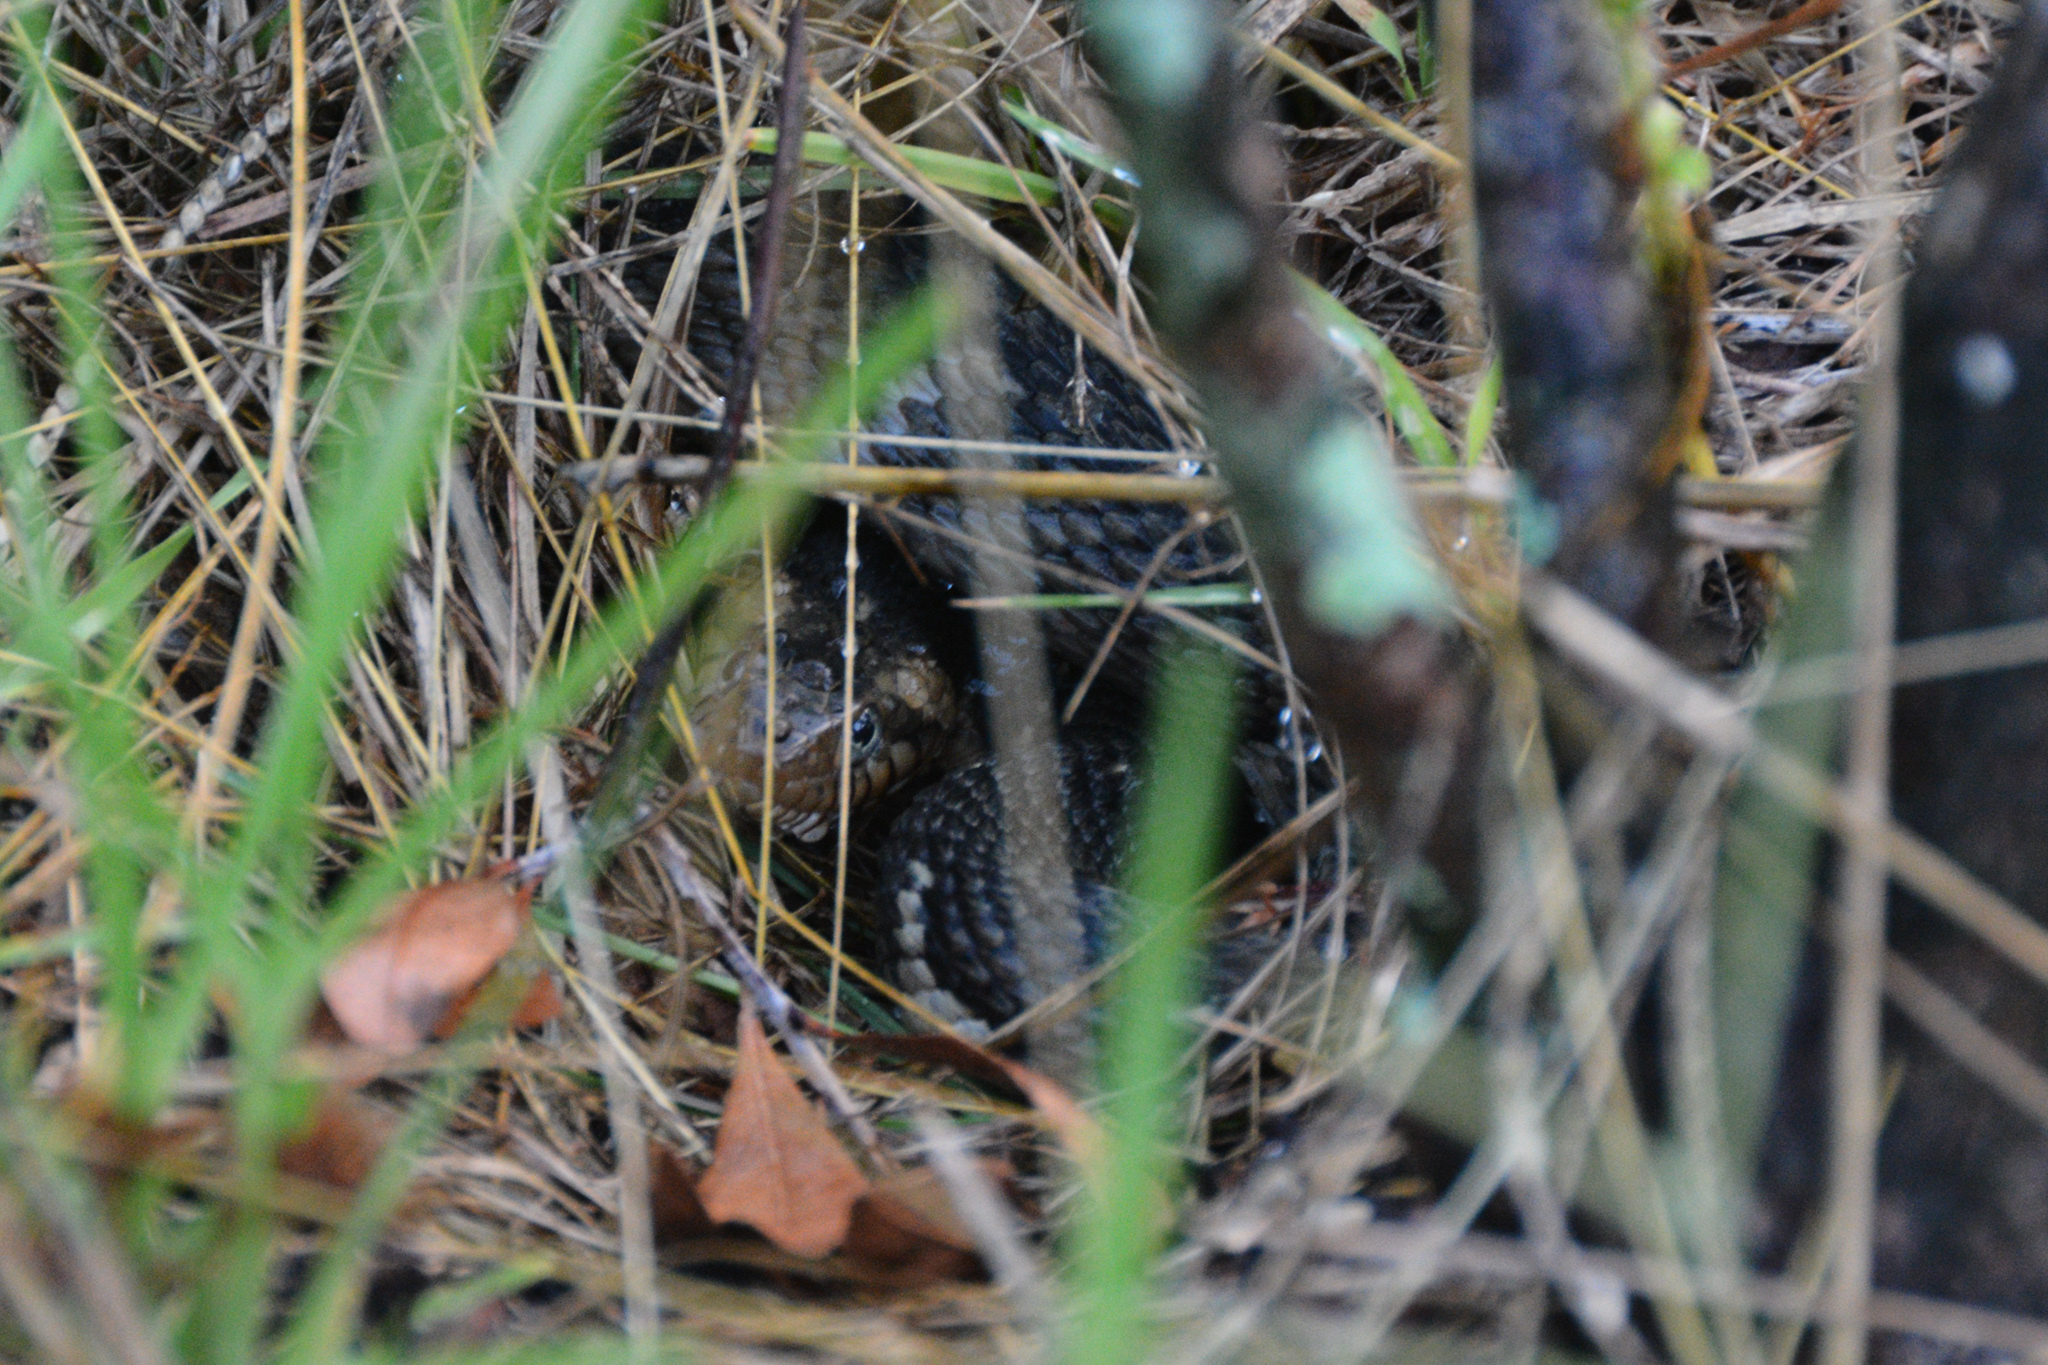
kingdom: Animalia
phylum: Chordata
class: Squamata
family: Colubridae
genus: Nerodia
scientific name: Nerodia fasciata
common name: Southern water snake
